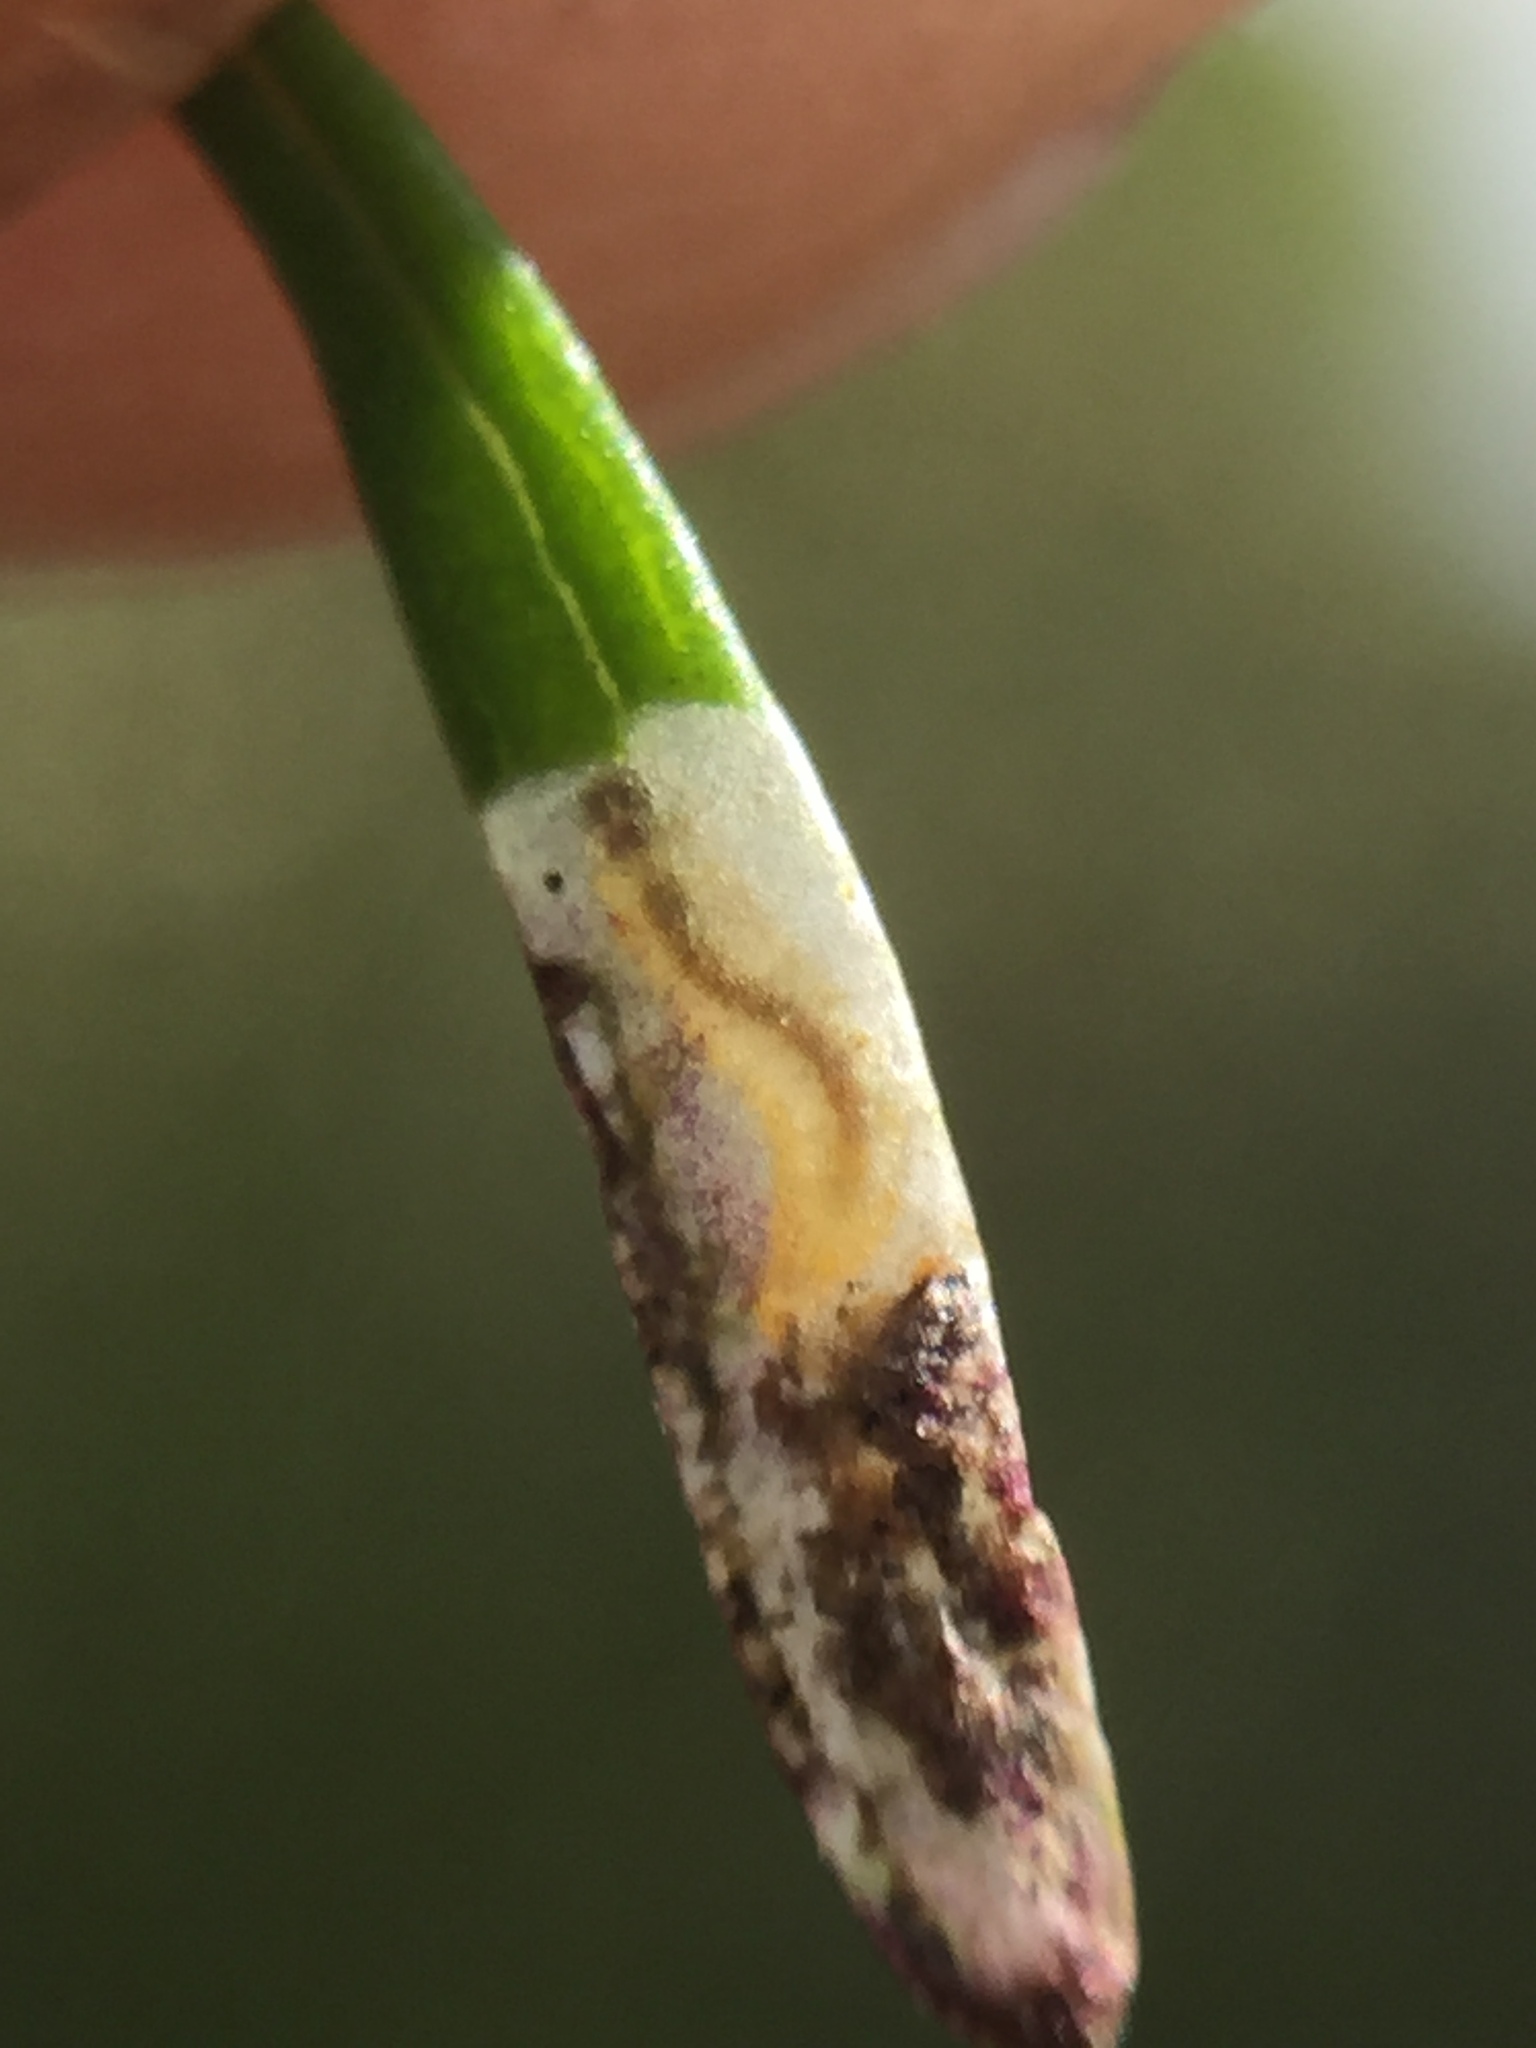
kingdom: Animalia
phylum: Arthropoda
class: Insecta
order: Lepidoptera
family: Nepticulidae
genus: Stigmella
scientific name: Stigmella aigialeia
